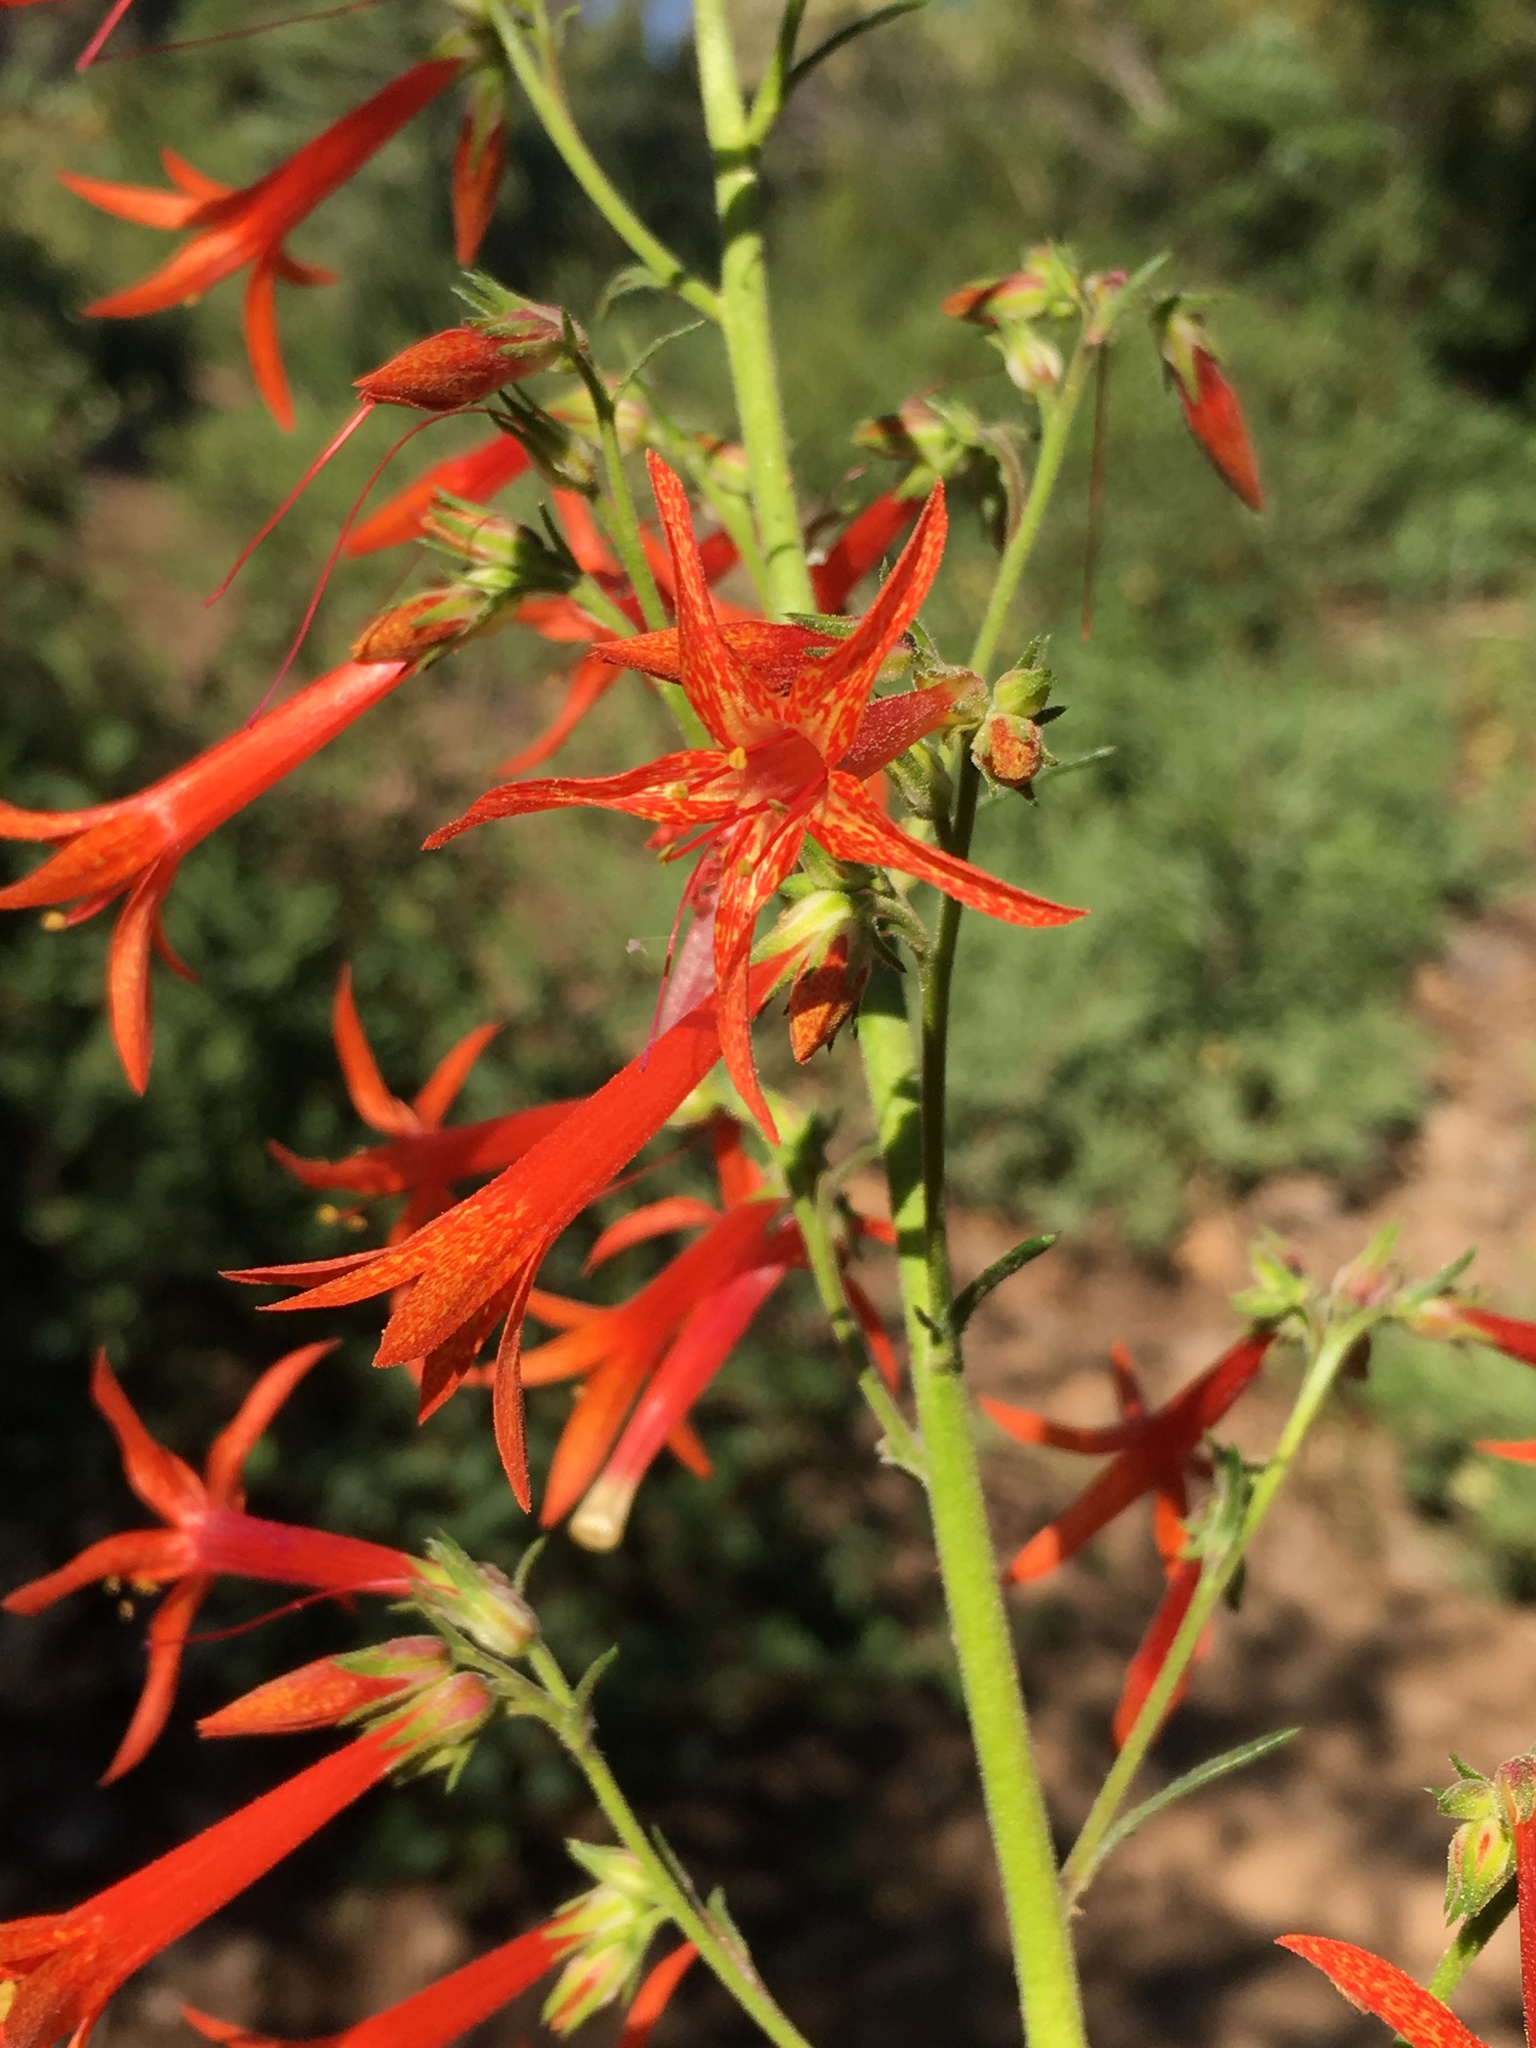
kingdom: Plantae
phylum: Tracheophyta
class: Magnoliopsida
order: Ericales
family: Polemoniaceae
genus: Ipomopsis
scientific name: Ipomopsis aggregata
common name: Scarlet gilia
